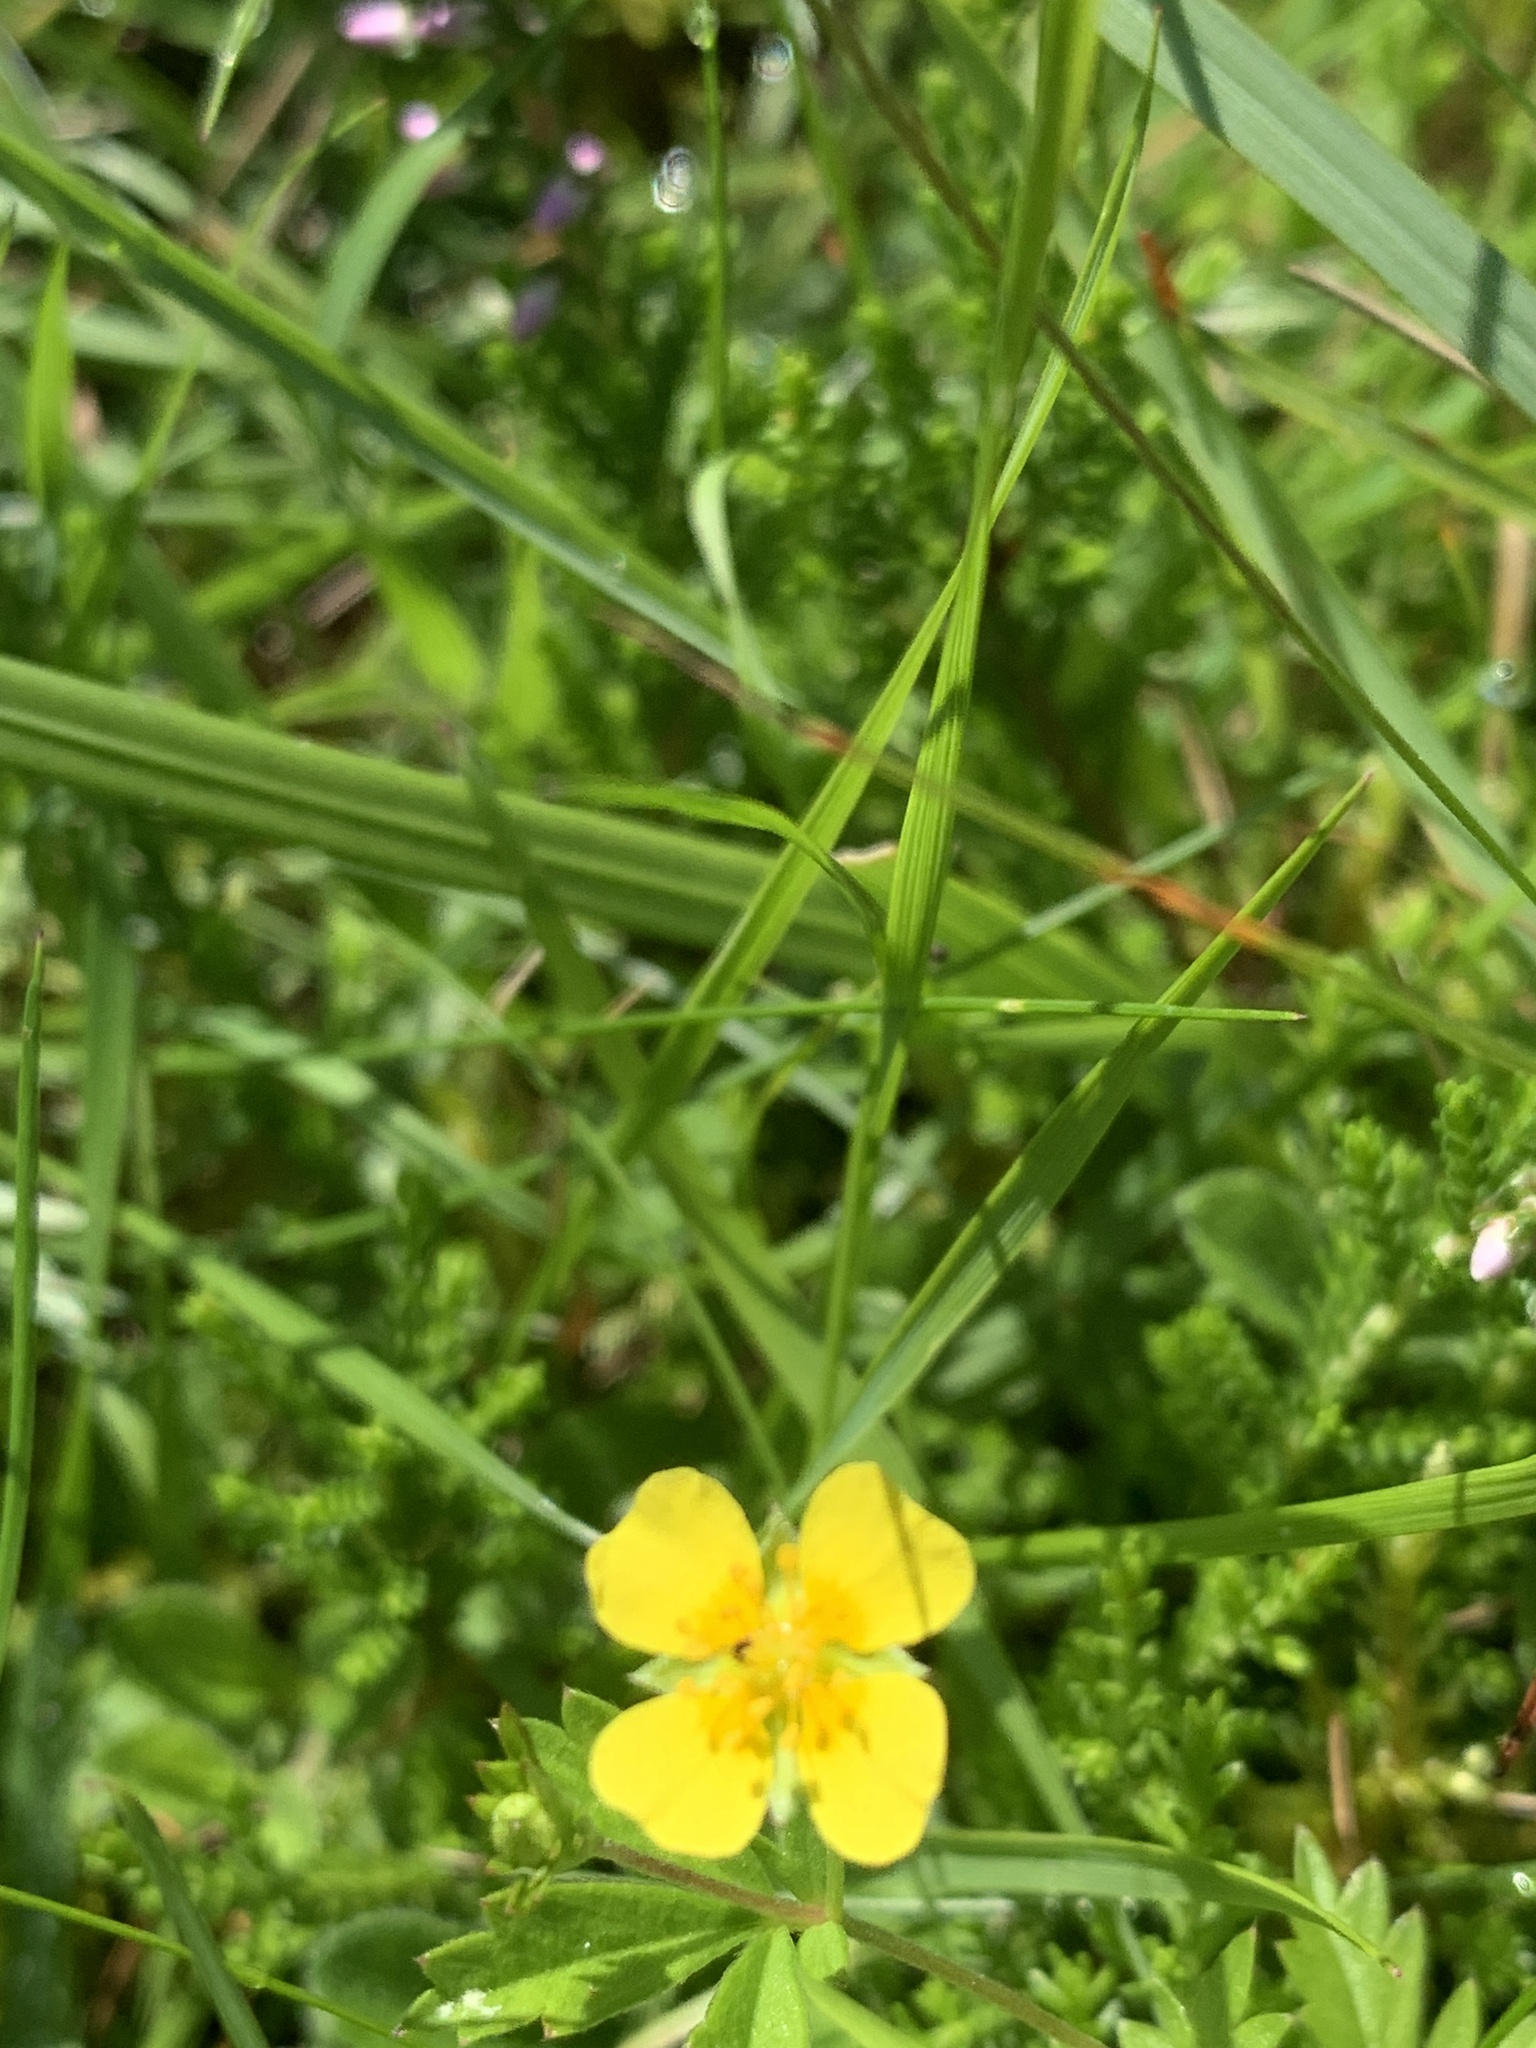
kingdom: Plantae
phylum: Tracheophyta
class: Magnoliopsida
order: Rosales
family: Rosaceae
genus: Potentilla
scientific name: Potentilla erecta
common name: Tormentil
